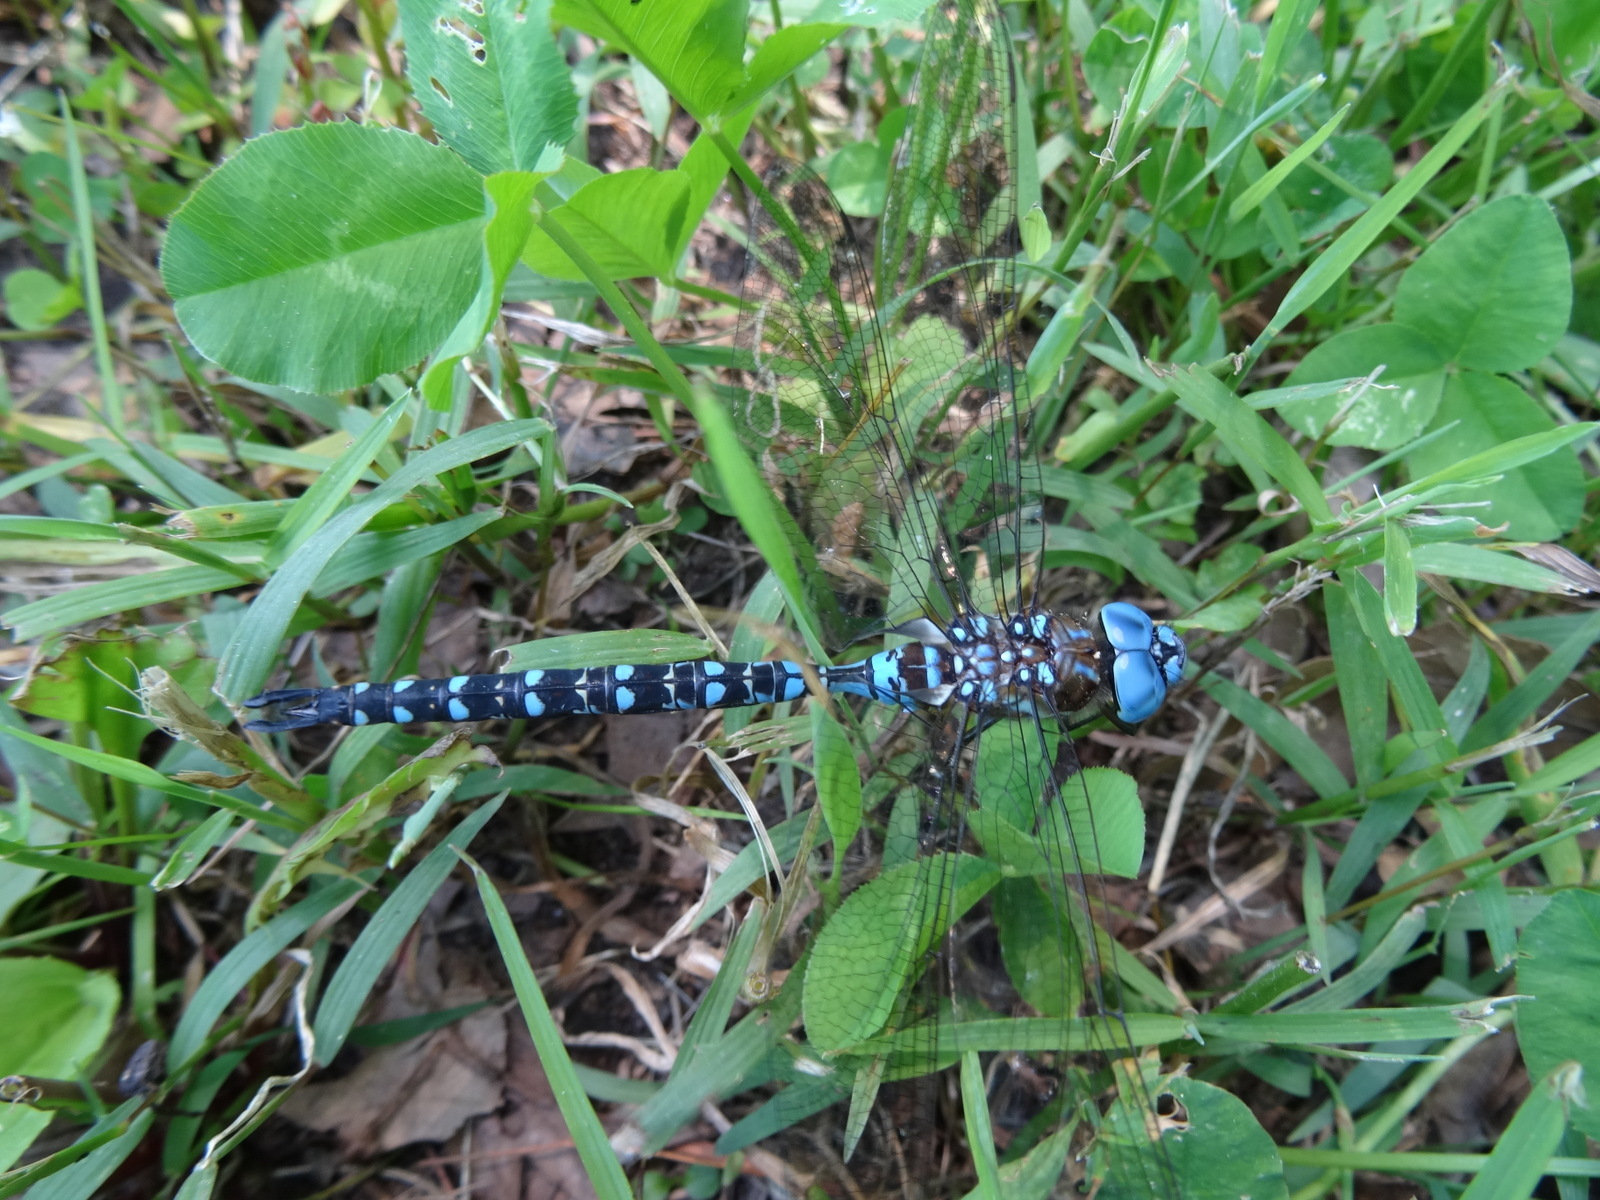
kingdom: Animalia
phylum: Arthropoda
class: Insecta
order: Odonata
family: Aeshnidae
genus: Rhionaeschna
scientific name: Rhionaeschna mutata
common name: Spatterdock darner
